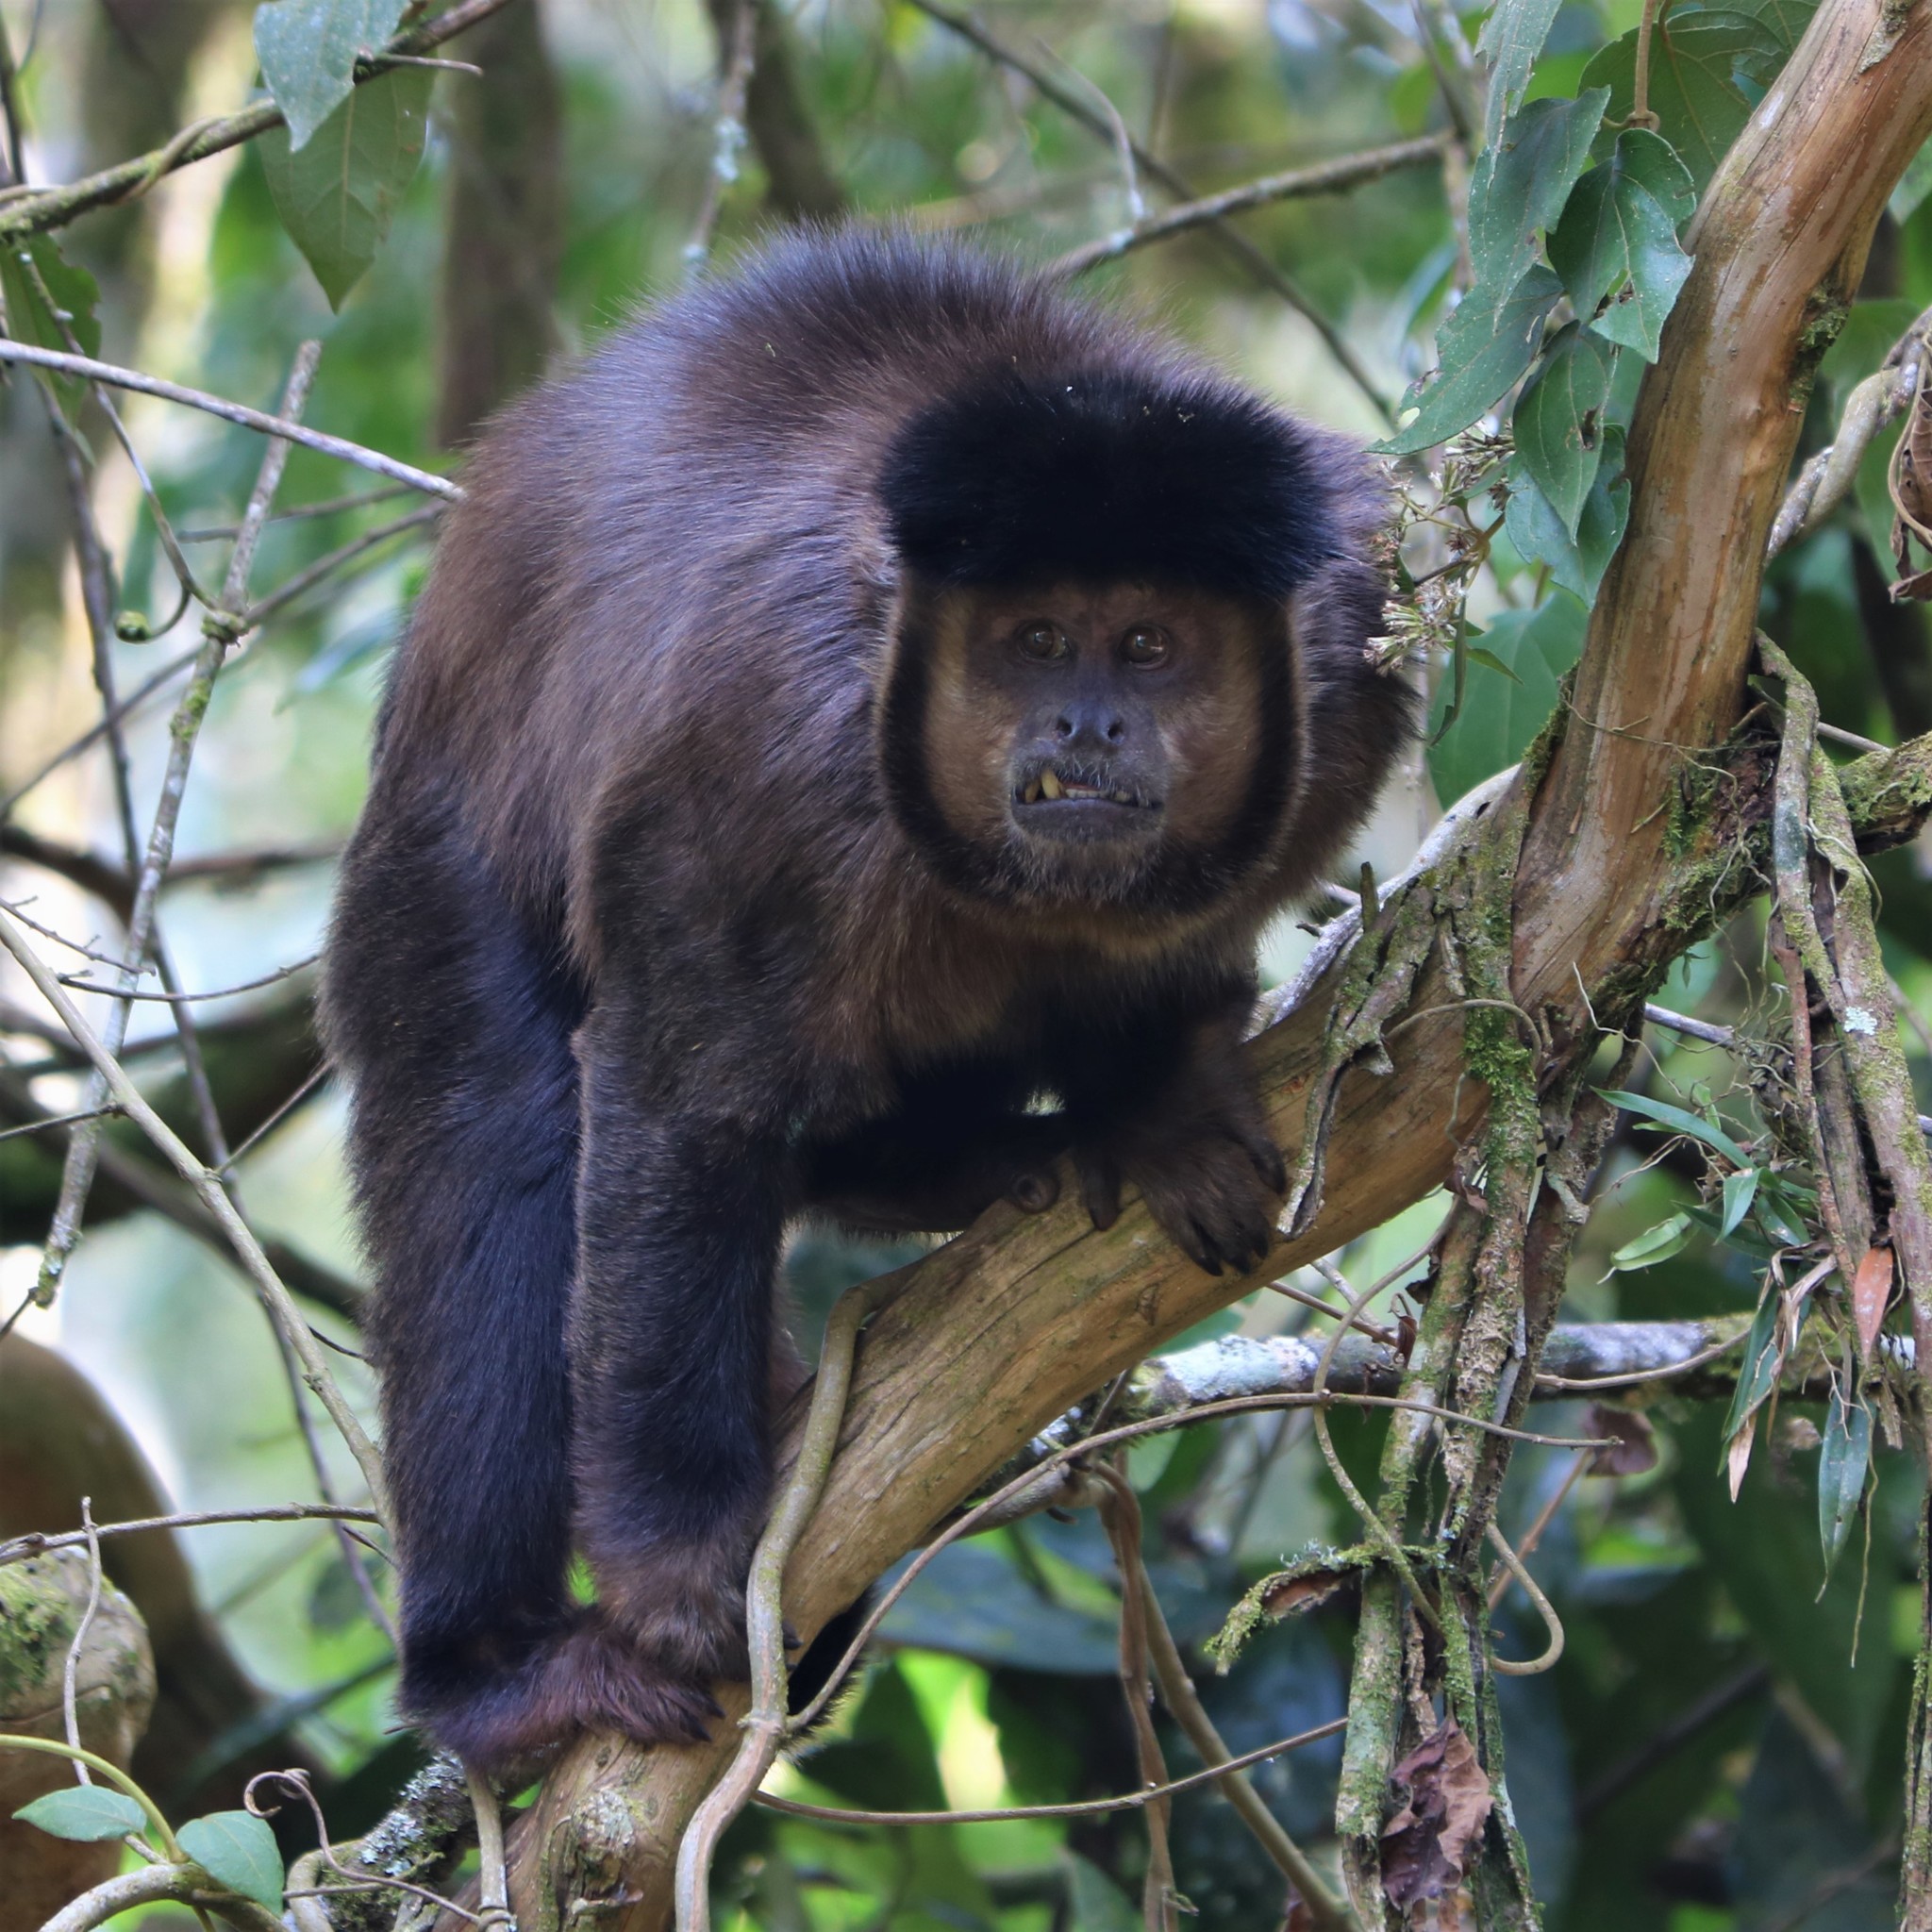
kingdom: Animalia
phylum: Chordata
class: Mammalia
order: Primates
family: Cebidae
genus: Sapajus
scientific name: Sapajus nigritus
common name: Black capuchin
